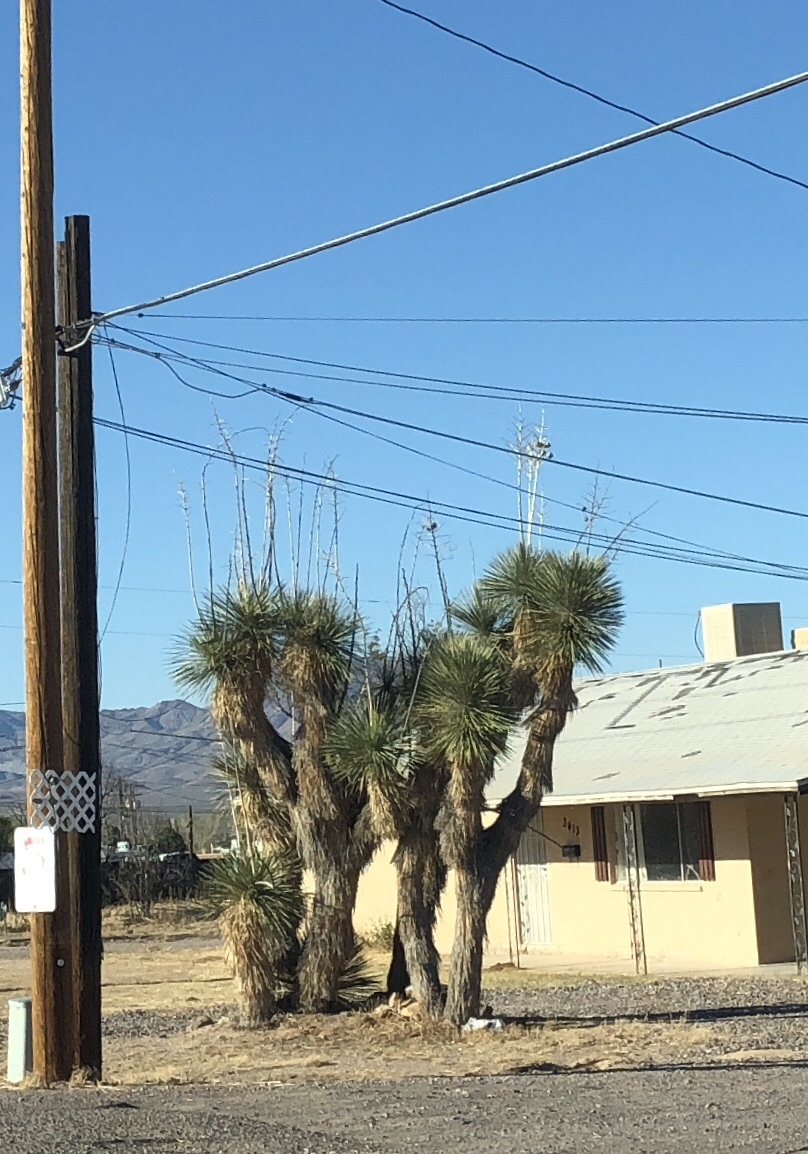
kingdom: Plantae
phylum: Tracheophyta
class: Liliopsida
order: Asparagales
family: Asparagaceae
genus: Yucca
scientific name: Yucca elata
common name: Palmella
